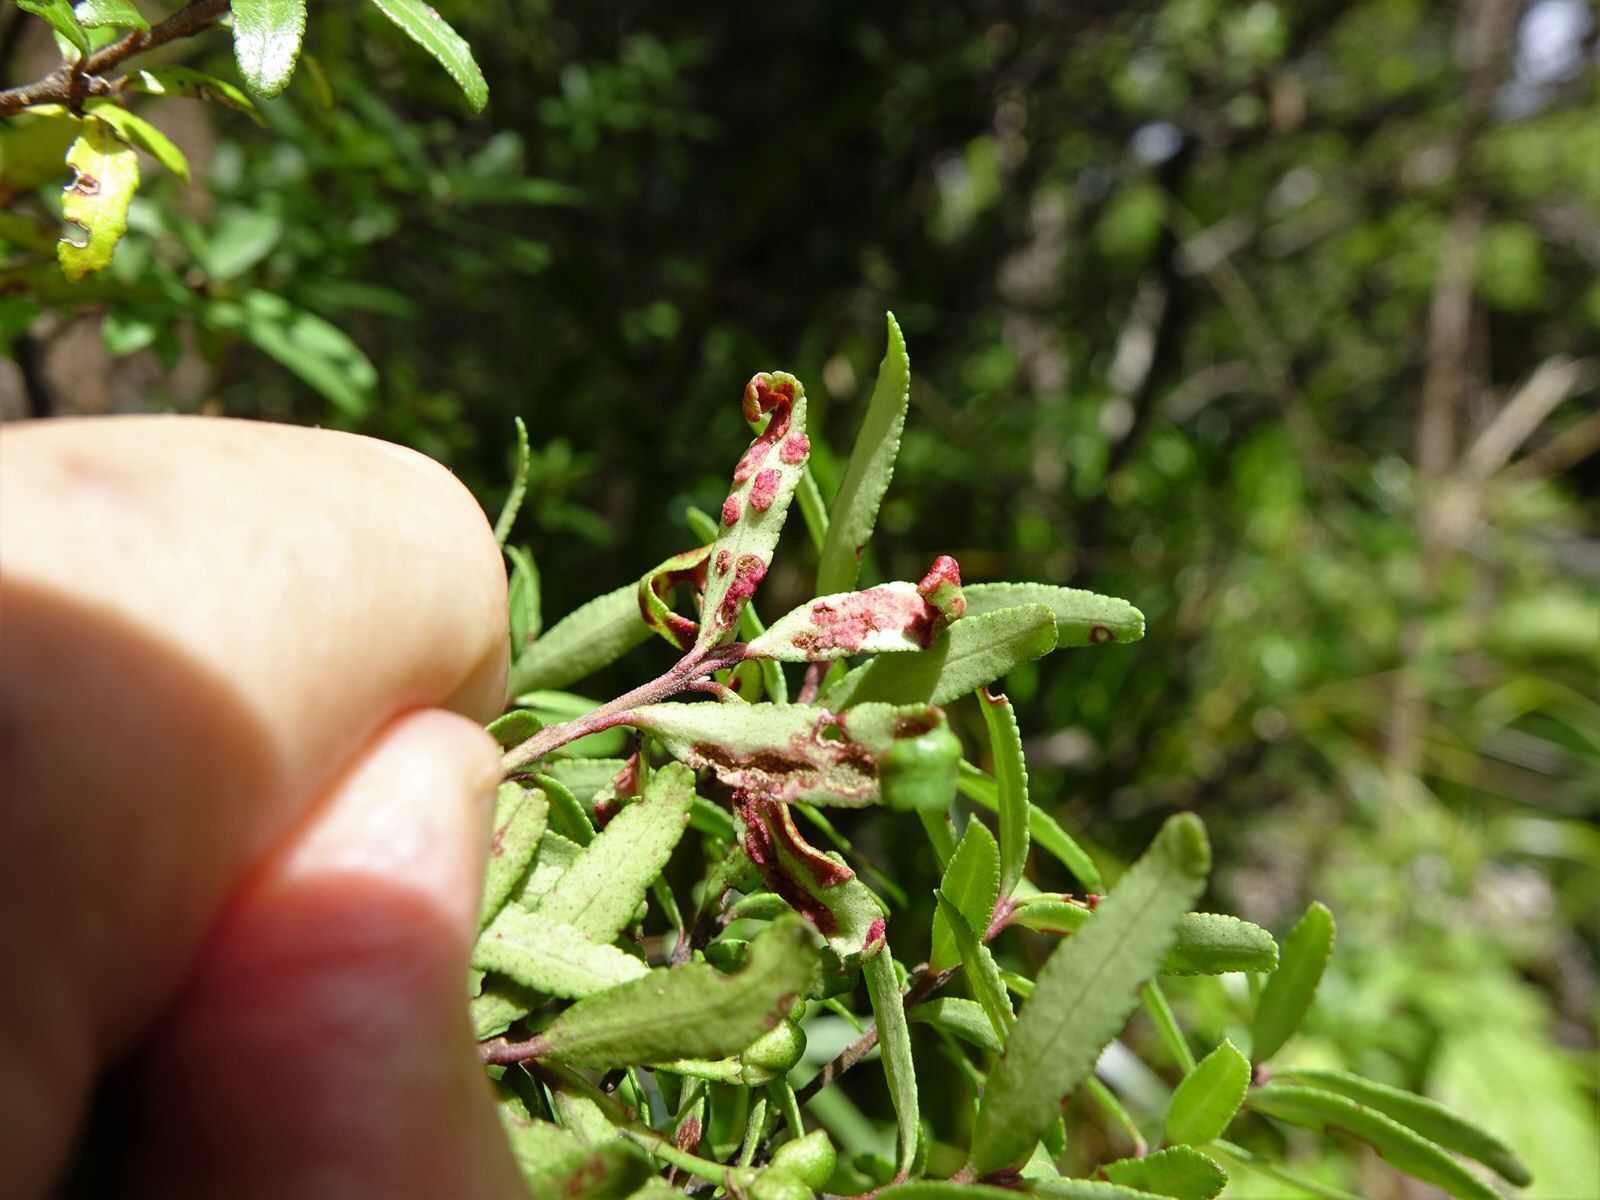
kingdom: Plantae
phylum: Tracheophyta
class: Magnoliopsida
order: Sapindales
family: Rutaceae
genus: Leionema
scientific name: Leionema nudum
